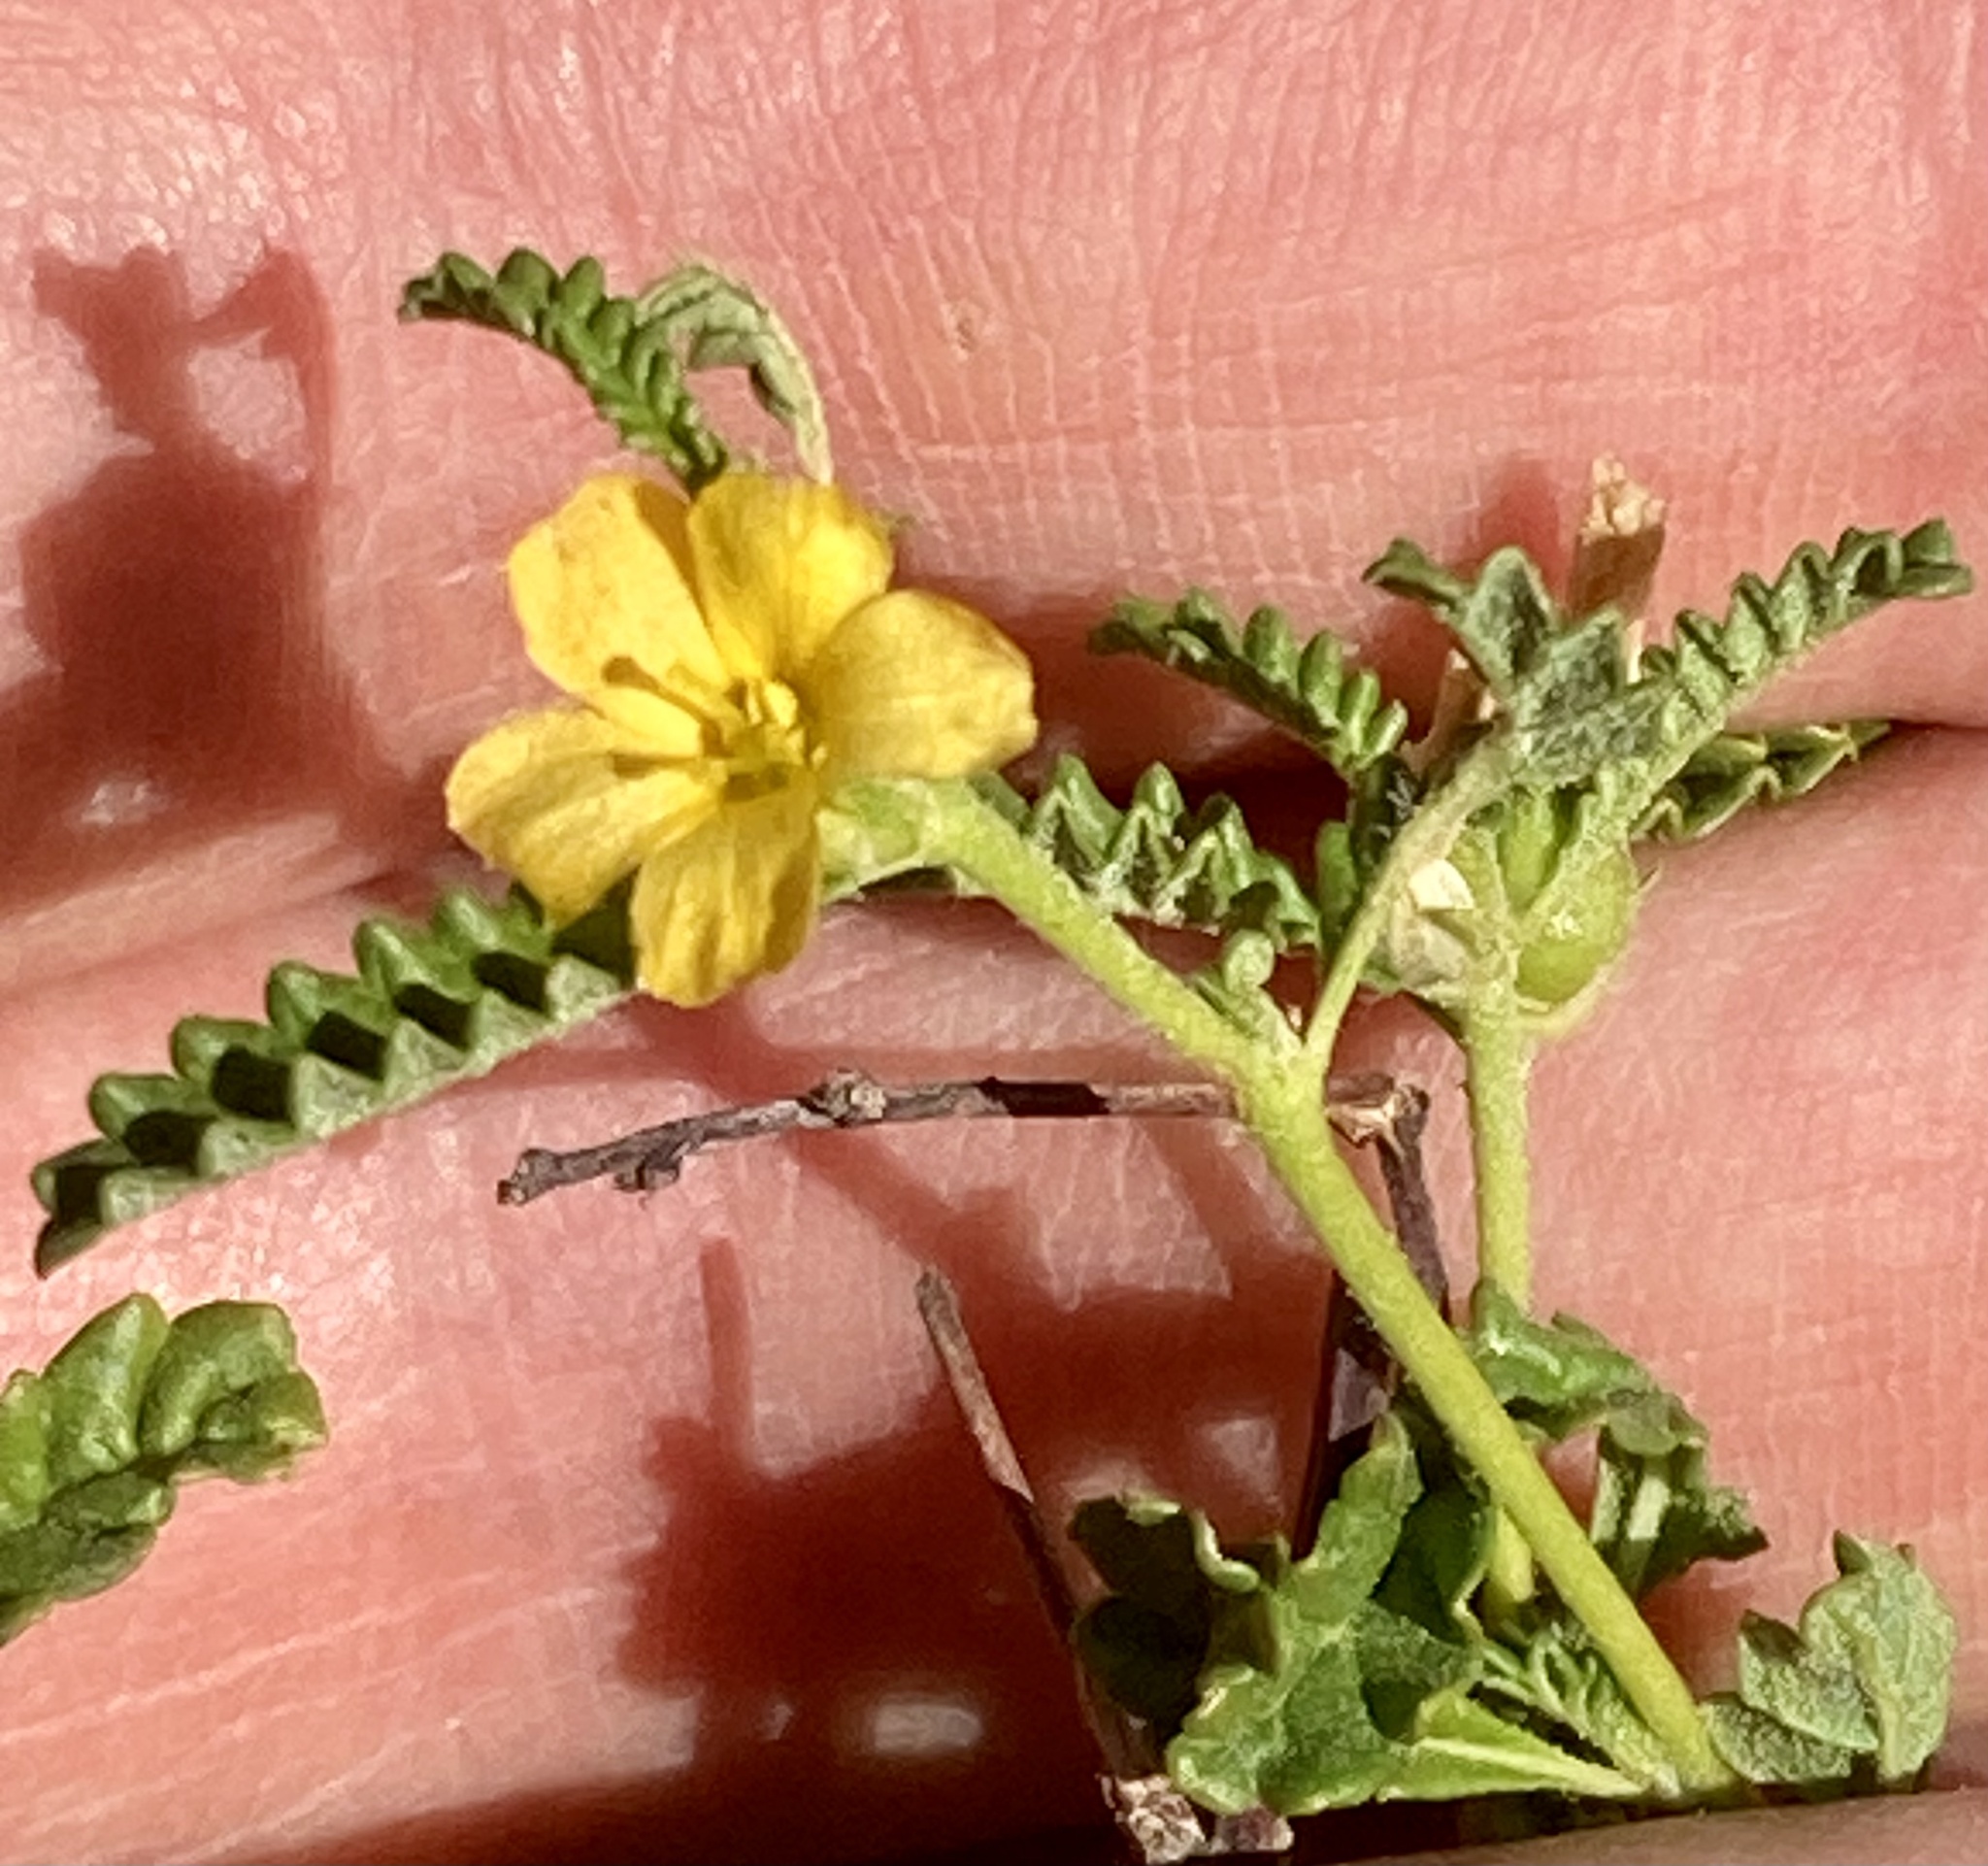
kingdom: Plantae
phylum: Tracheophyta
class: Magnoliopsida
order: Malpighiales
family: Turneraceae
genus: Turnera
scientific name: Turnera diffusa
